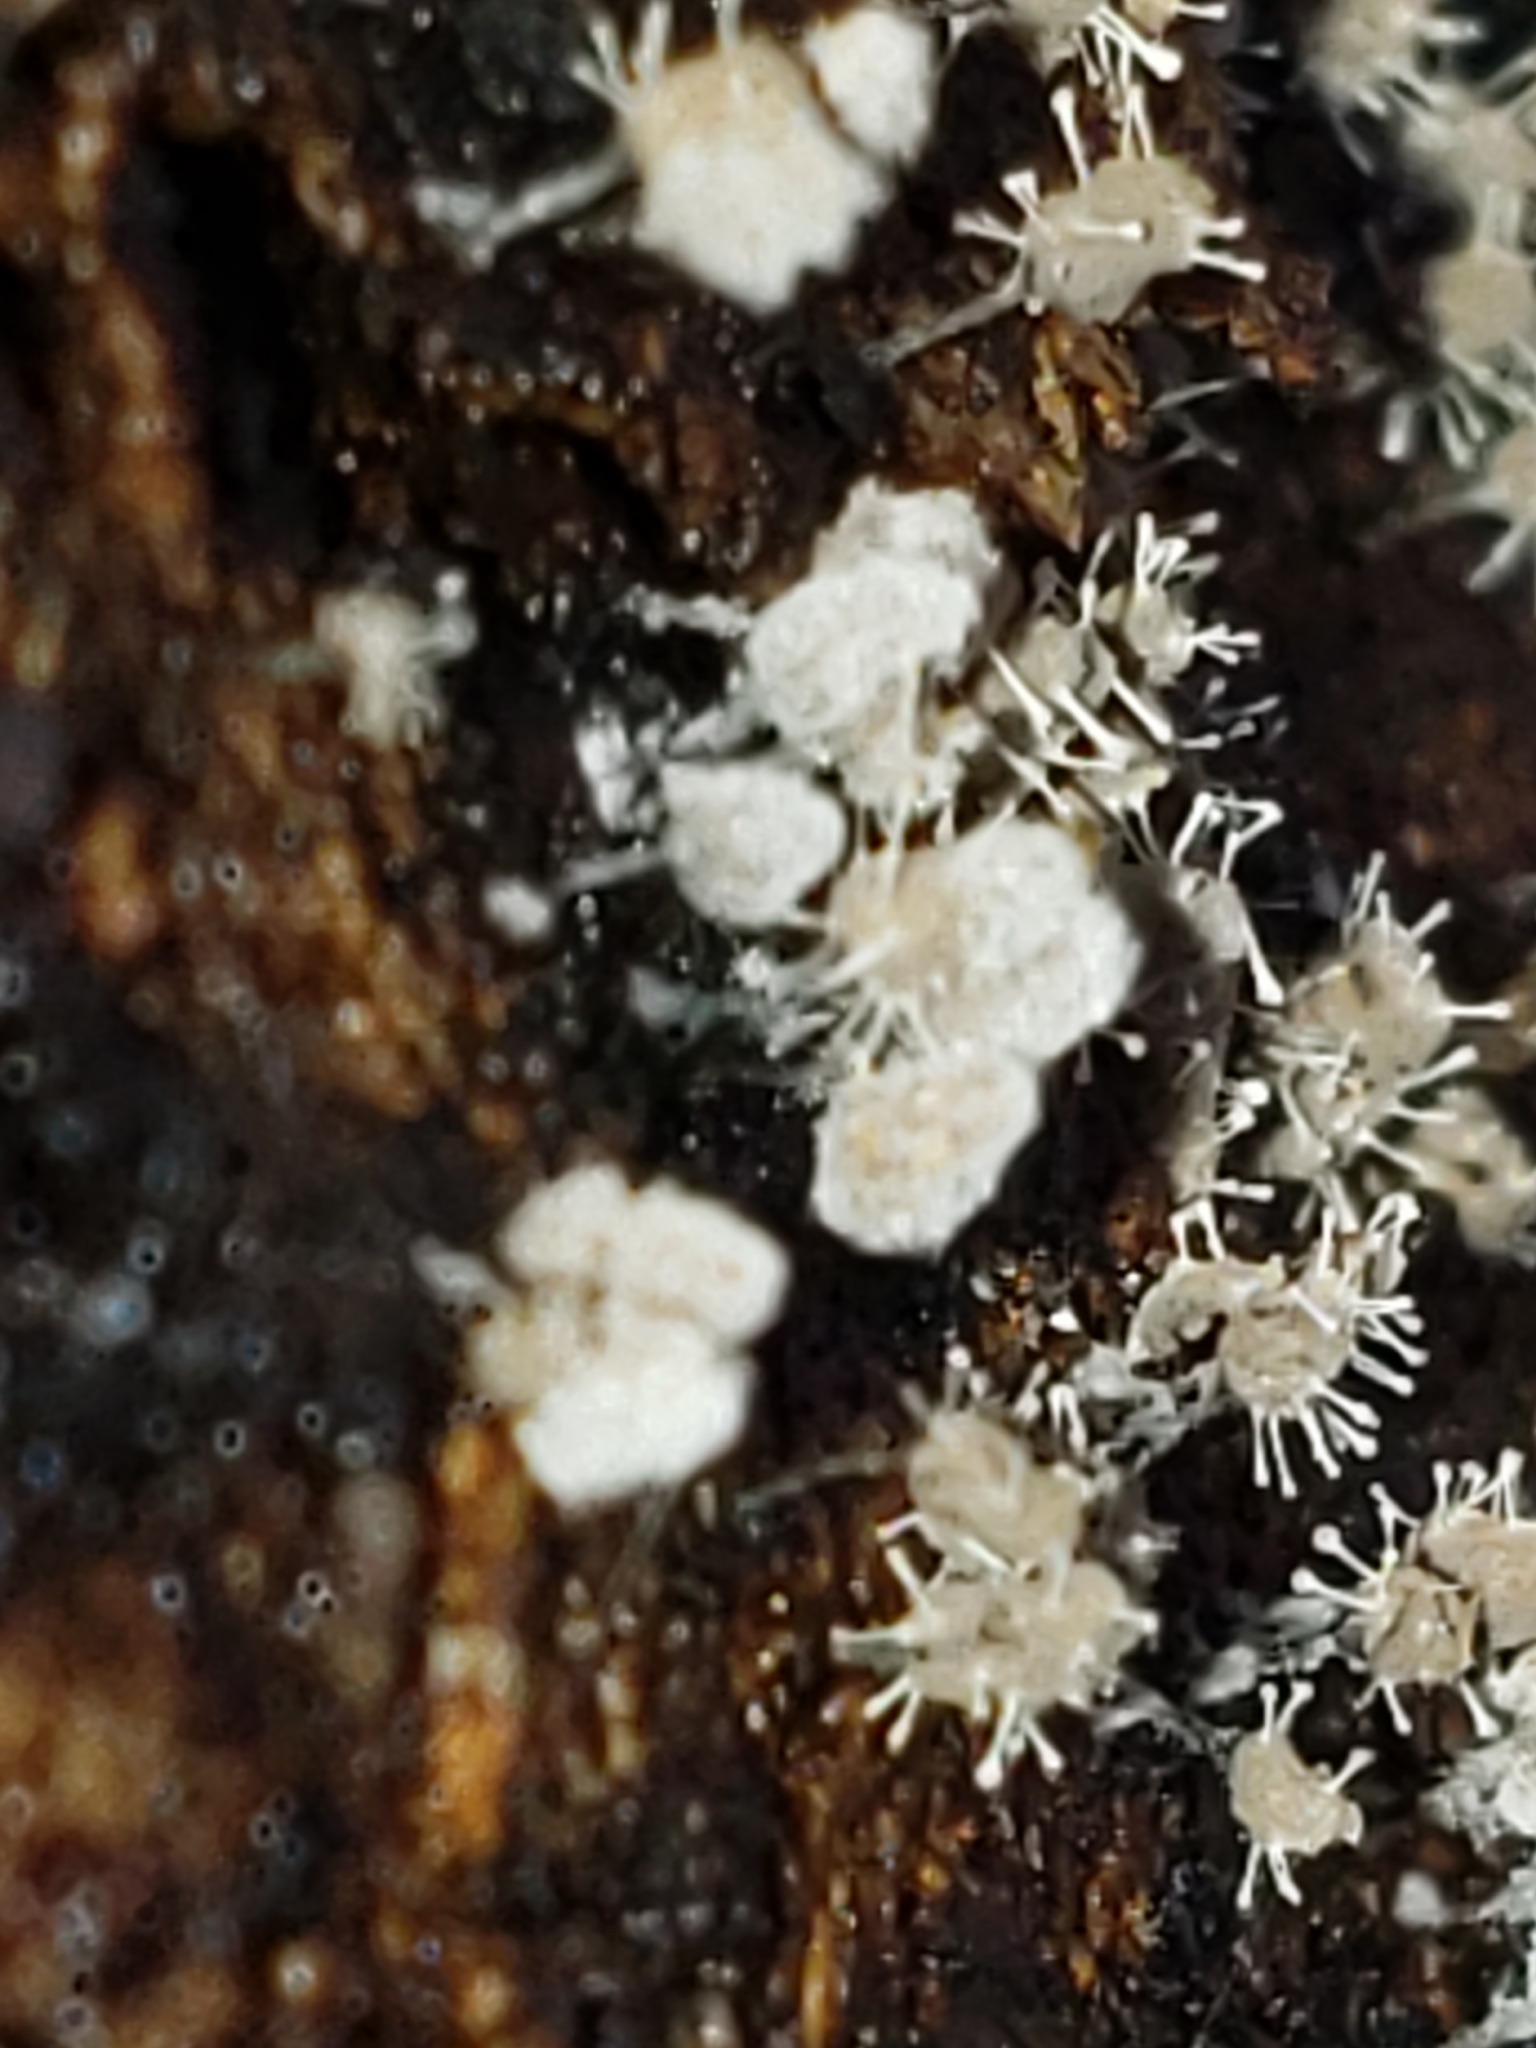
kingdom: Fungi
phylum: Ascomycota
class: Sordariomycetes
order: Hypocreales
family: Ophiocordycipitaceae
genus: Polycephalomyces
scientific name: Polycephalomyces tomentosus
